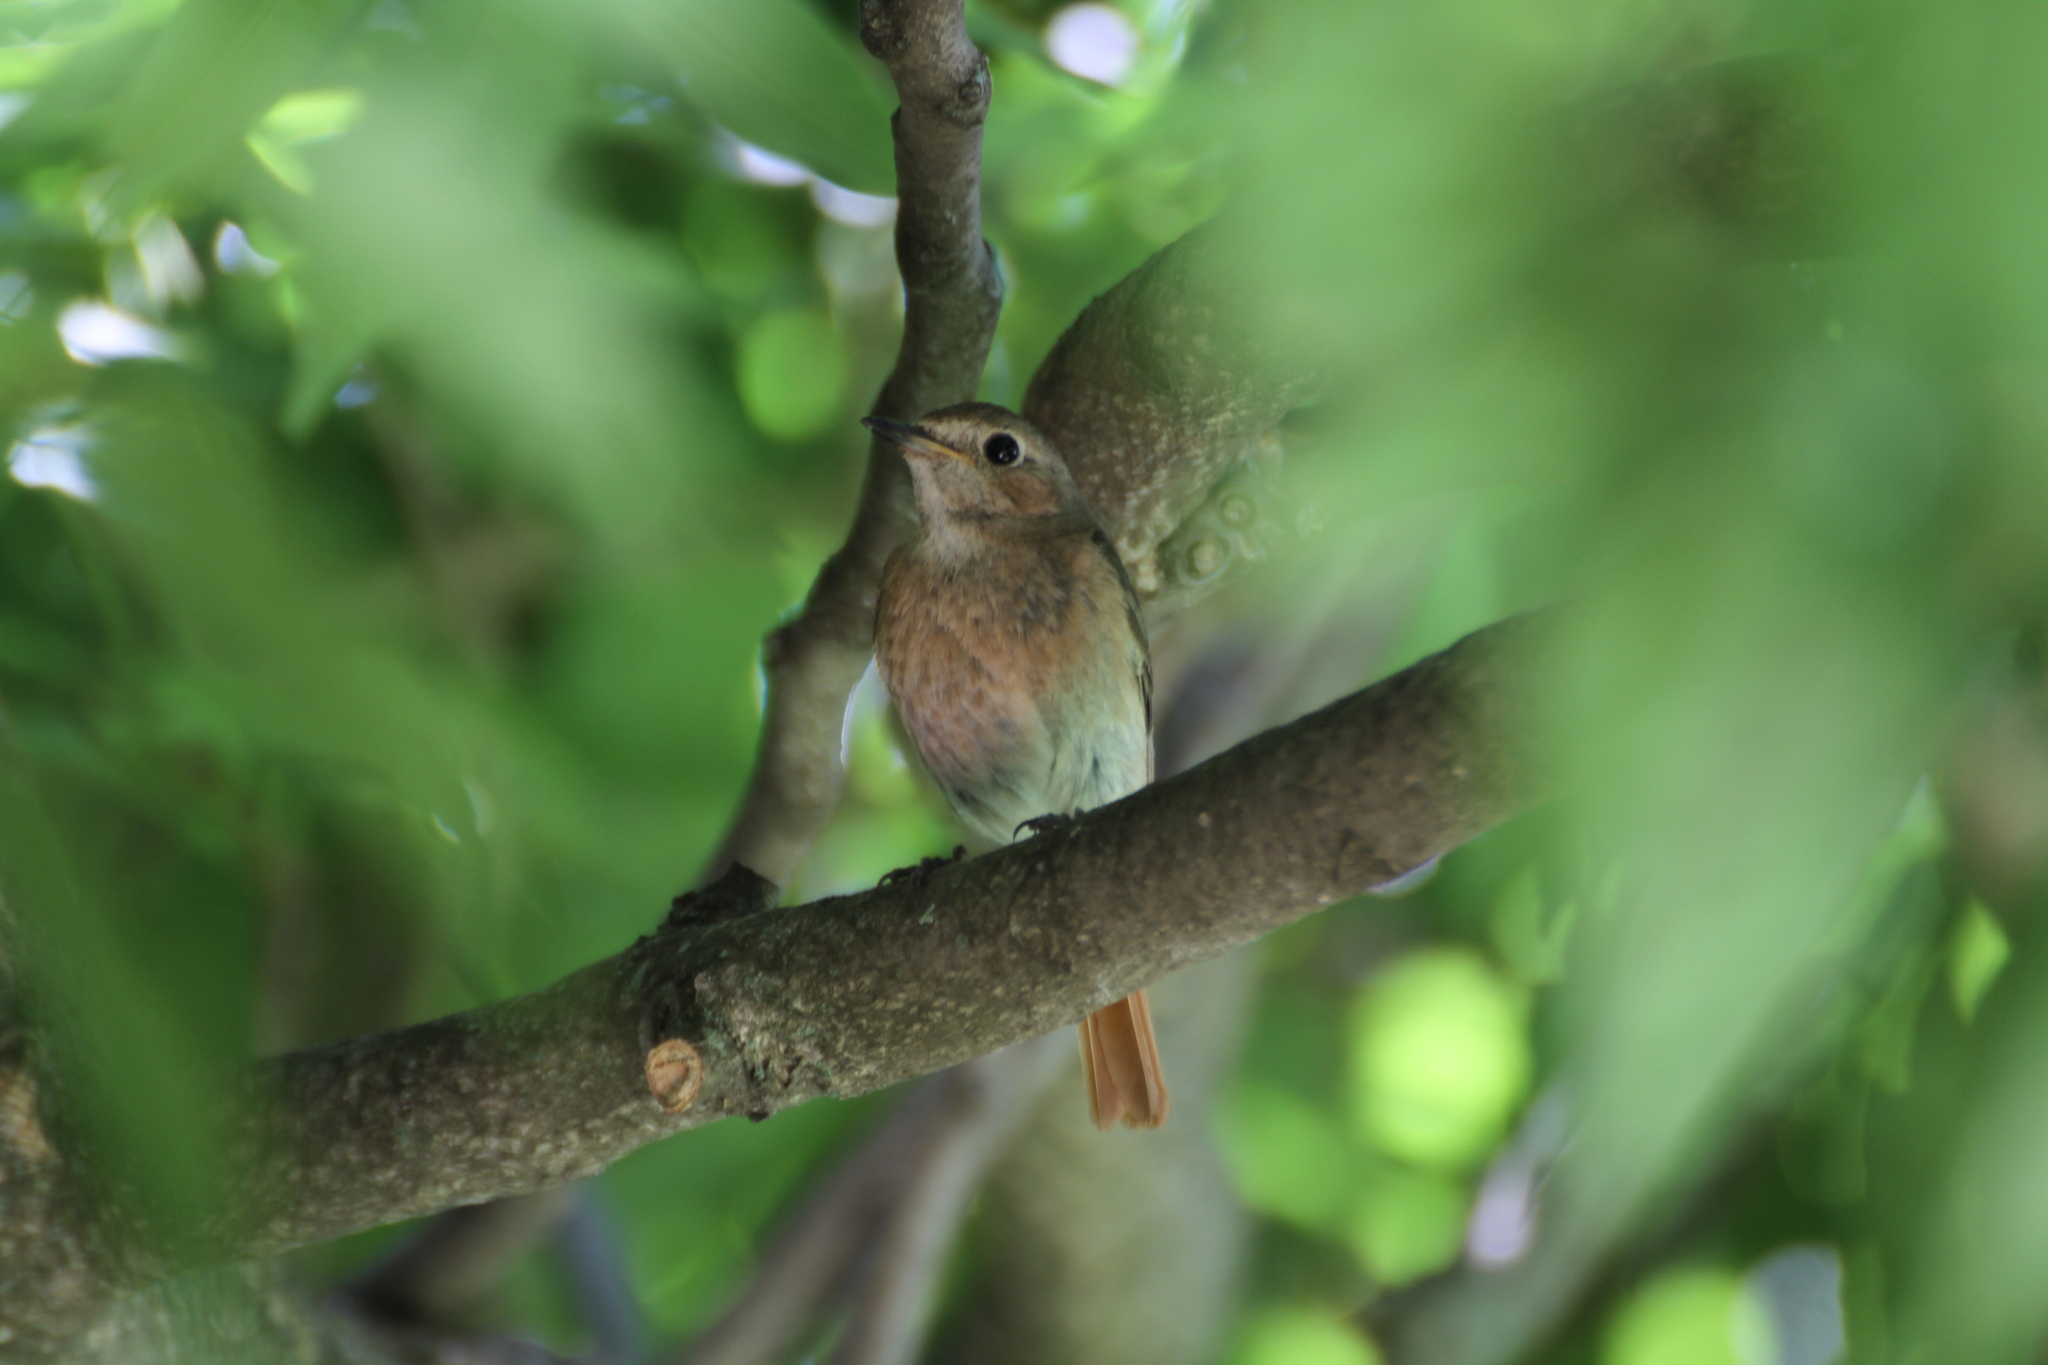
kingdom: Animalia
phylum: Chordata
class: Aves
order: Passeriformes
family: Muscicapidae
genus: Phoenicurus
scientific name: Phoenicurus phoenicurus
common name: Common redstart
